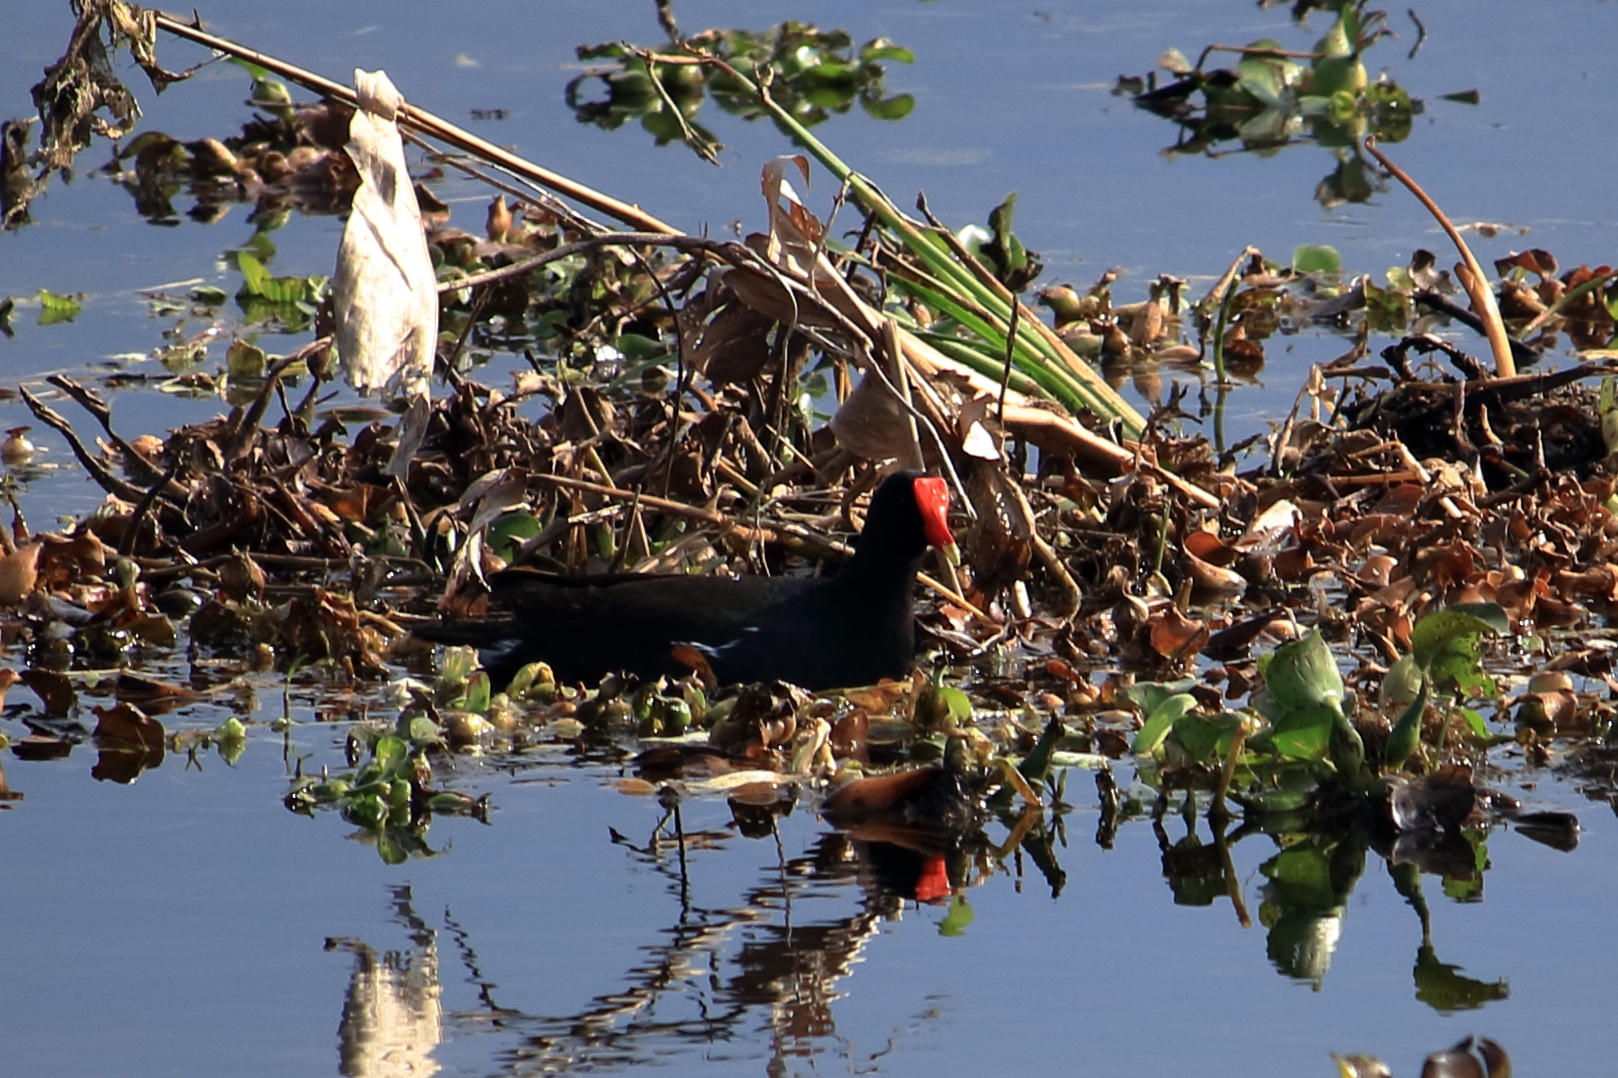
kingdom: Animalia
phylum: Chordata
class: Aves
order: Gruiformes
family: Rallidae
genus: Gallinula
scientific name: Gallinula chloropus
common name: Common moorhen
